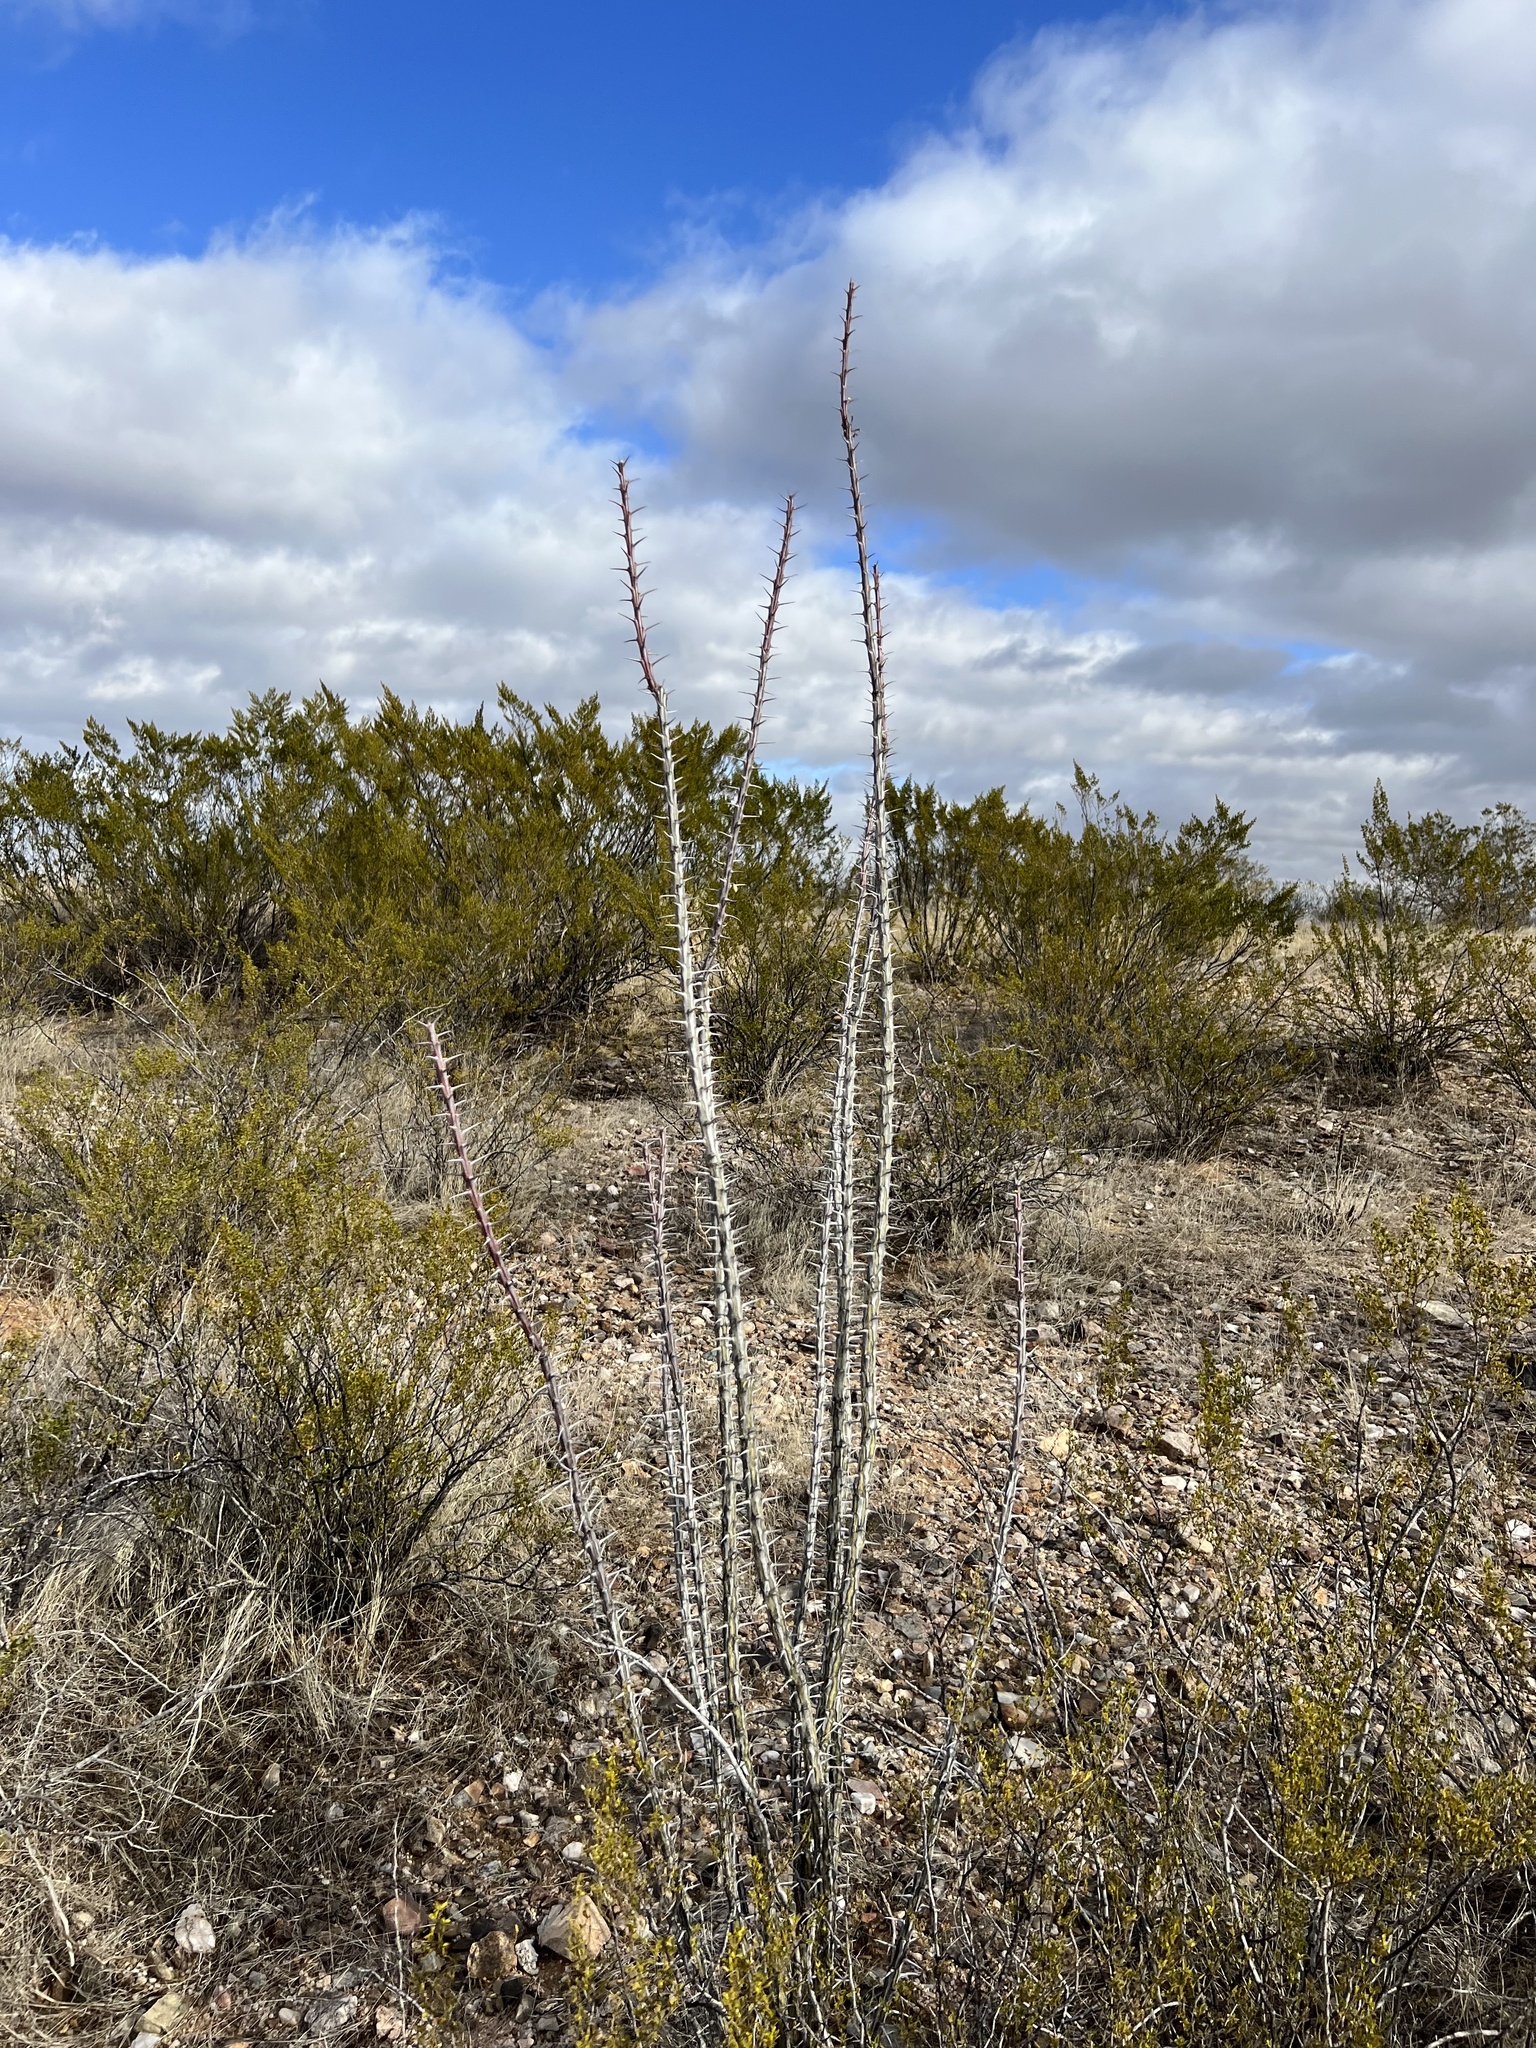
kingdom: Plantae
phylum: Tracheophyta
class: Magnoliopsida
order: Ericales
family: Fouquieriaceae
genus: Fouquieria
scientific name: Fouquieria splendens
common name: Vine-cactus
